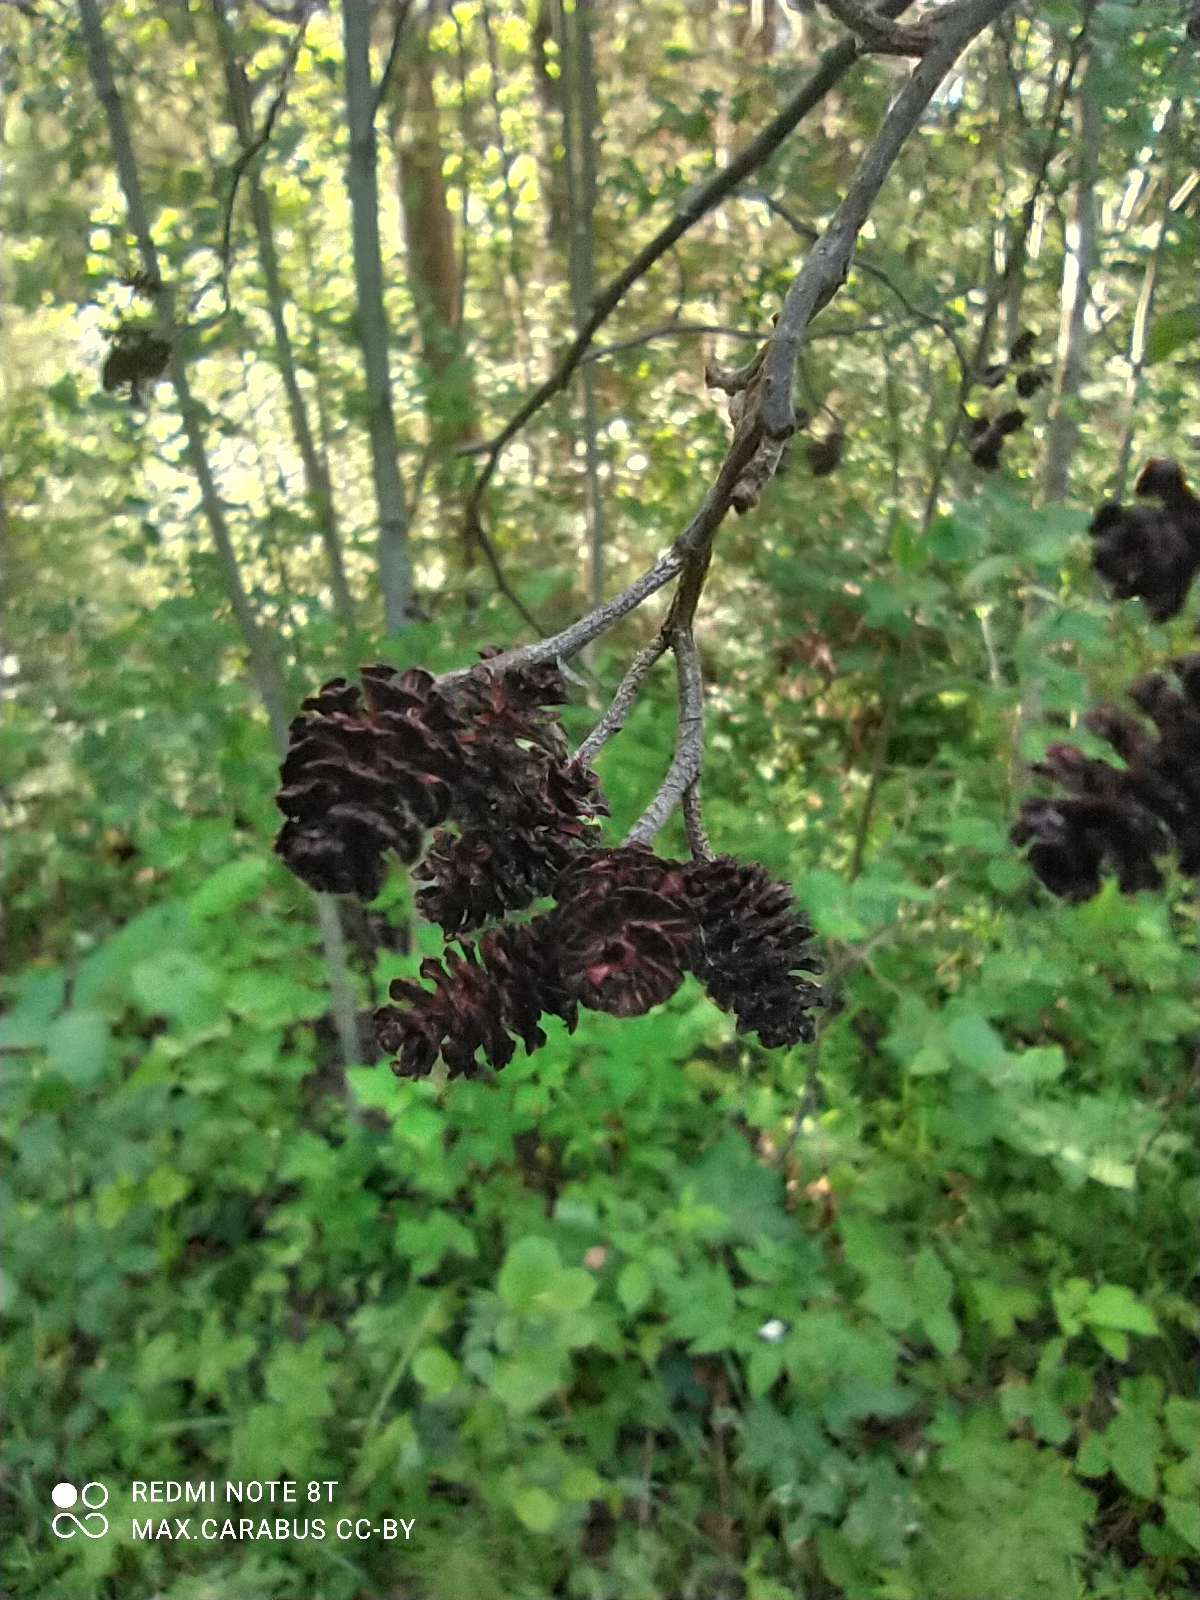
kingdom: Plantae
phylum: Tracheophyta
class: Magnoliopsida
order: Fagales
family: Betulaceae
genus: Alnus
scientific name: Alnus incana
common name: Grey alder
